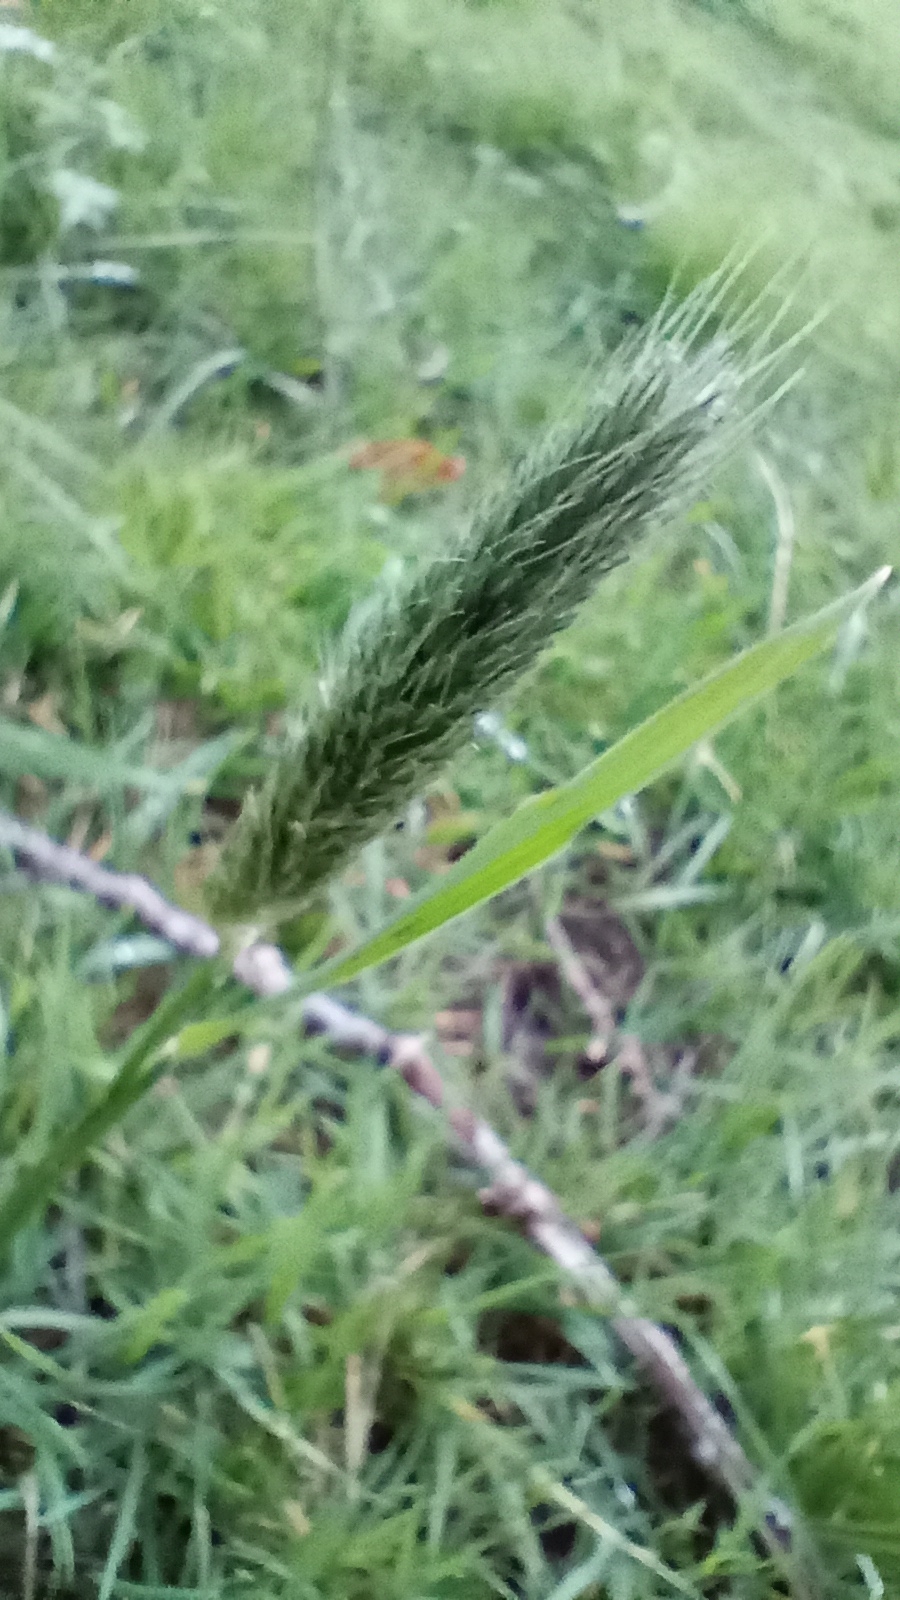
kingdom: Plantae
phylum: Tracheophyta
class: Liliopsida
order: Poales
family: Poaceae
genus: Alopecurus
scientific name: Alopecurus pratensis
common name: Meadow foxtail
